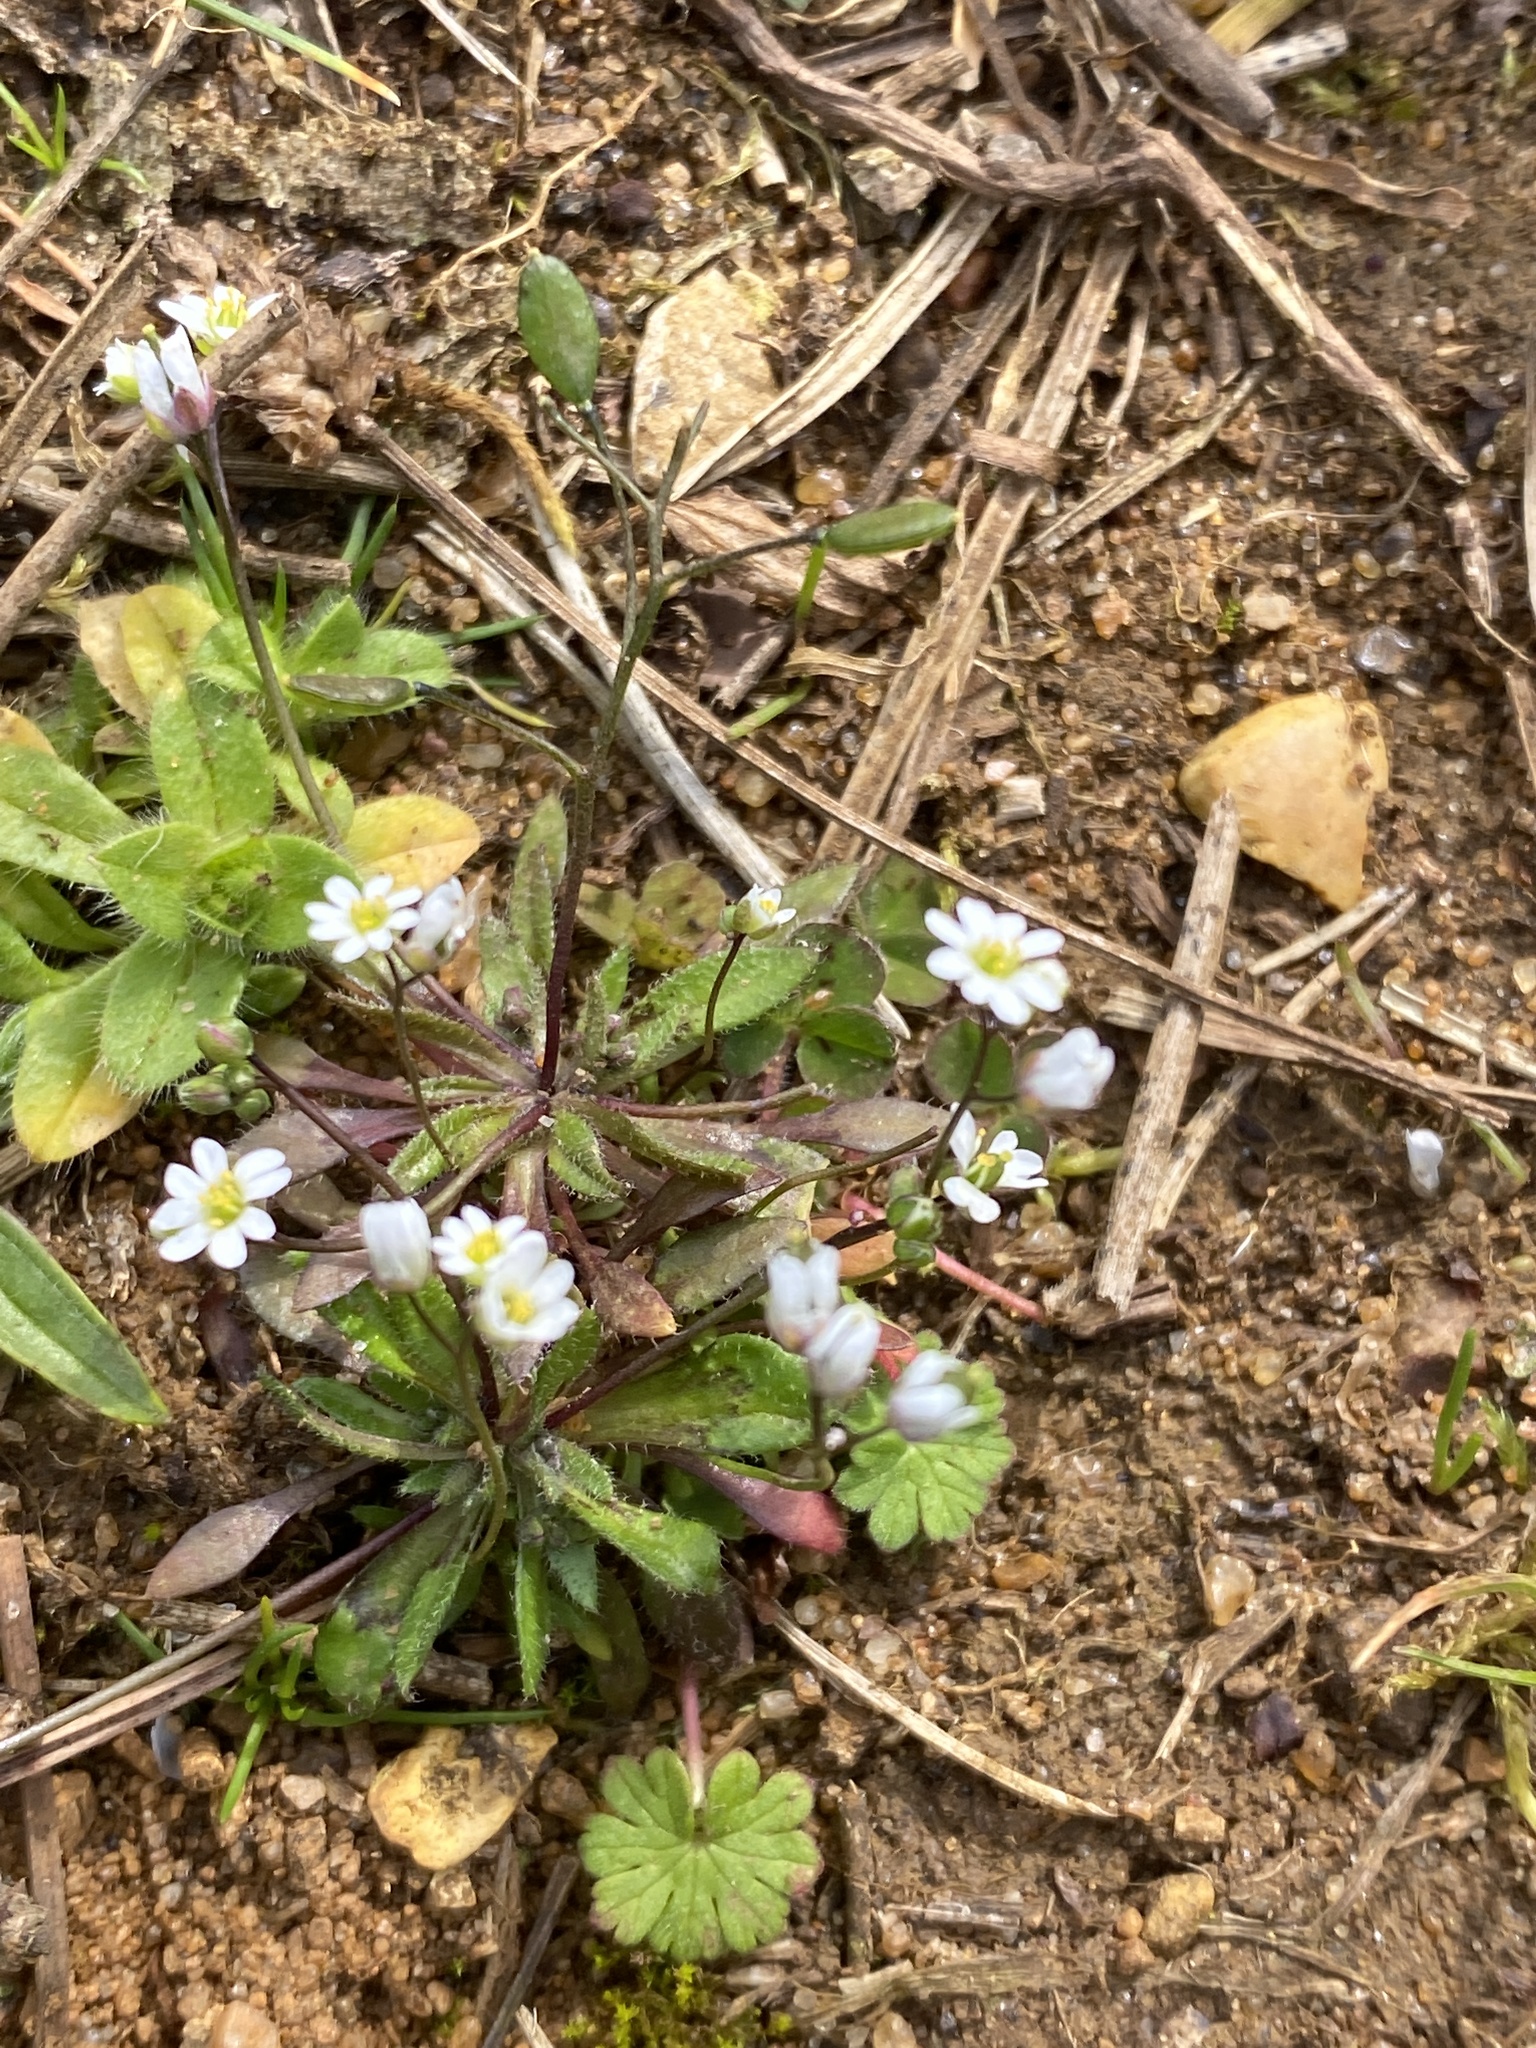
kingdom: Plantae
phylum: Tracheophyta
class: Magnoliopsida
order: Brassicales
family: Brassicaceae
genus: Draba
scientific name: Draba verna
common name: Spring draba
